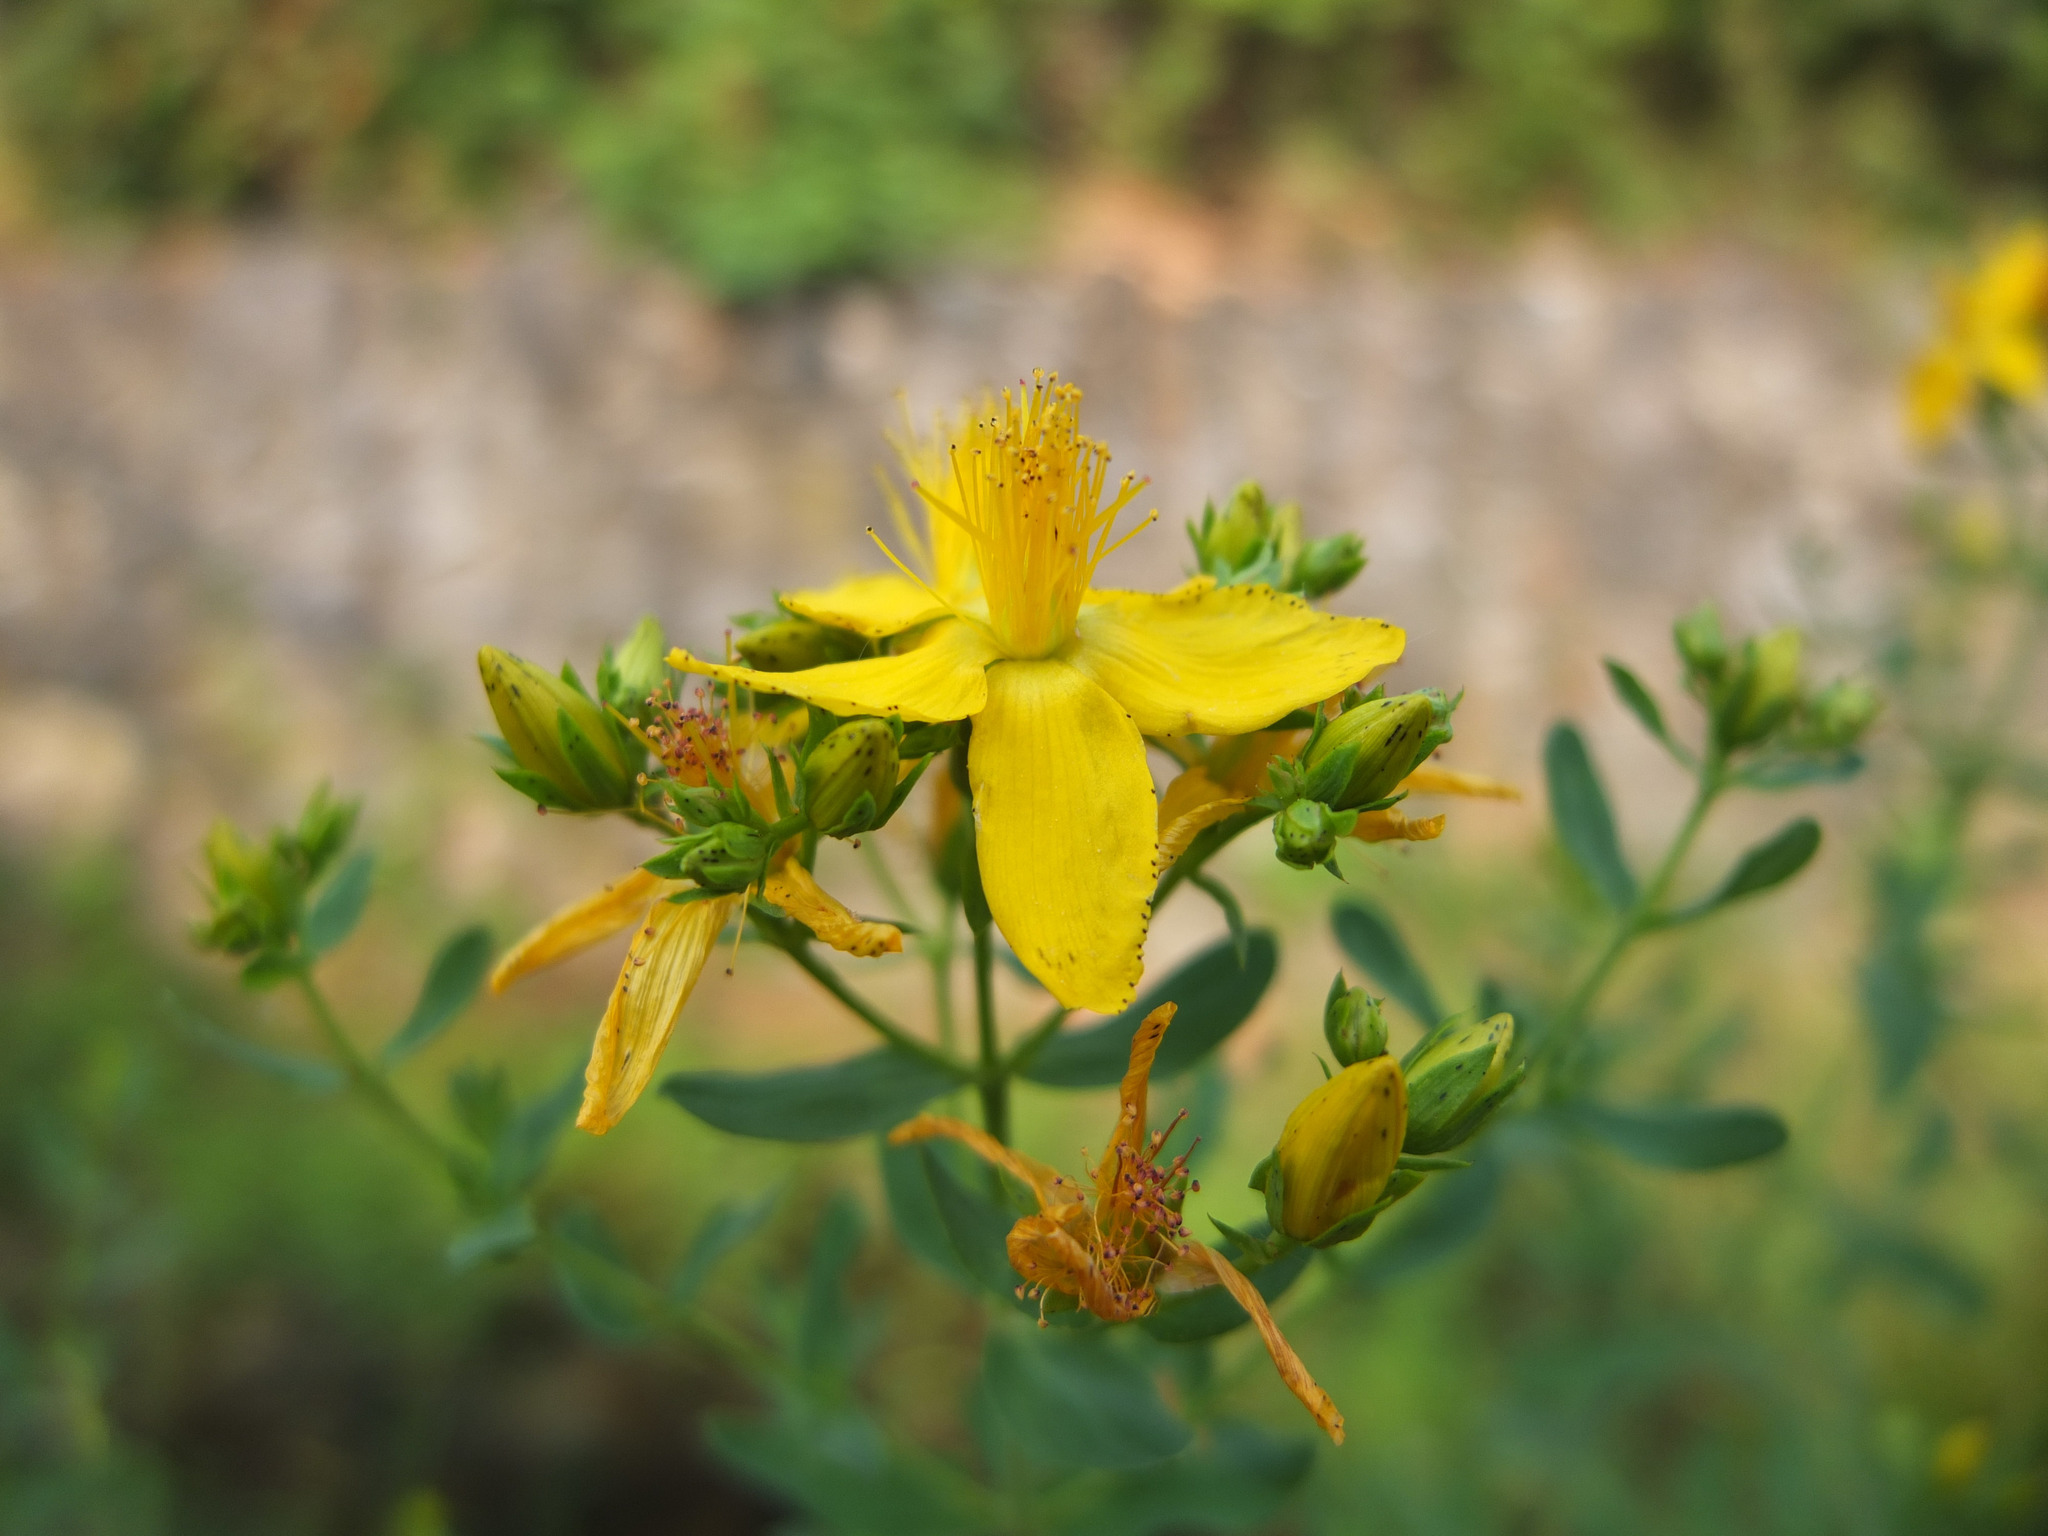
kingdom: Plantae
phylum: Tracheophyta
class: Magnoliopsida
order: Malpighiales
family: Hypericaceae
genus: Hypericum
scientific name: Hypericum perforatum
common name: Common st. johnswort
